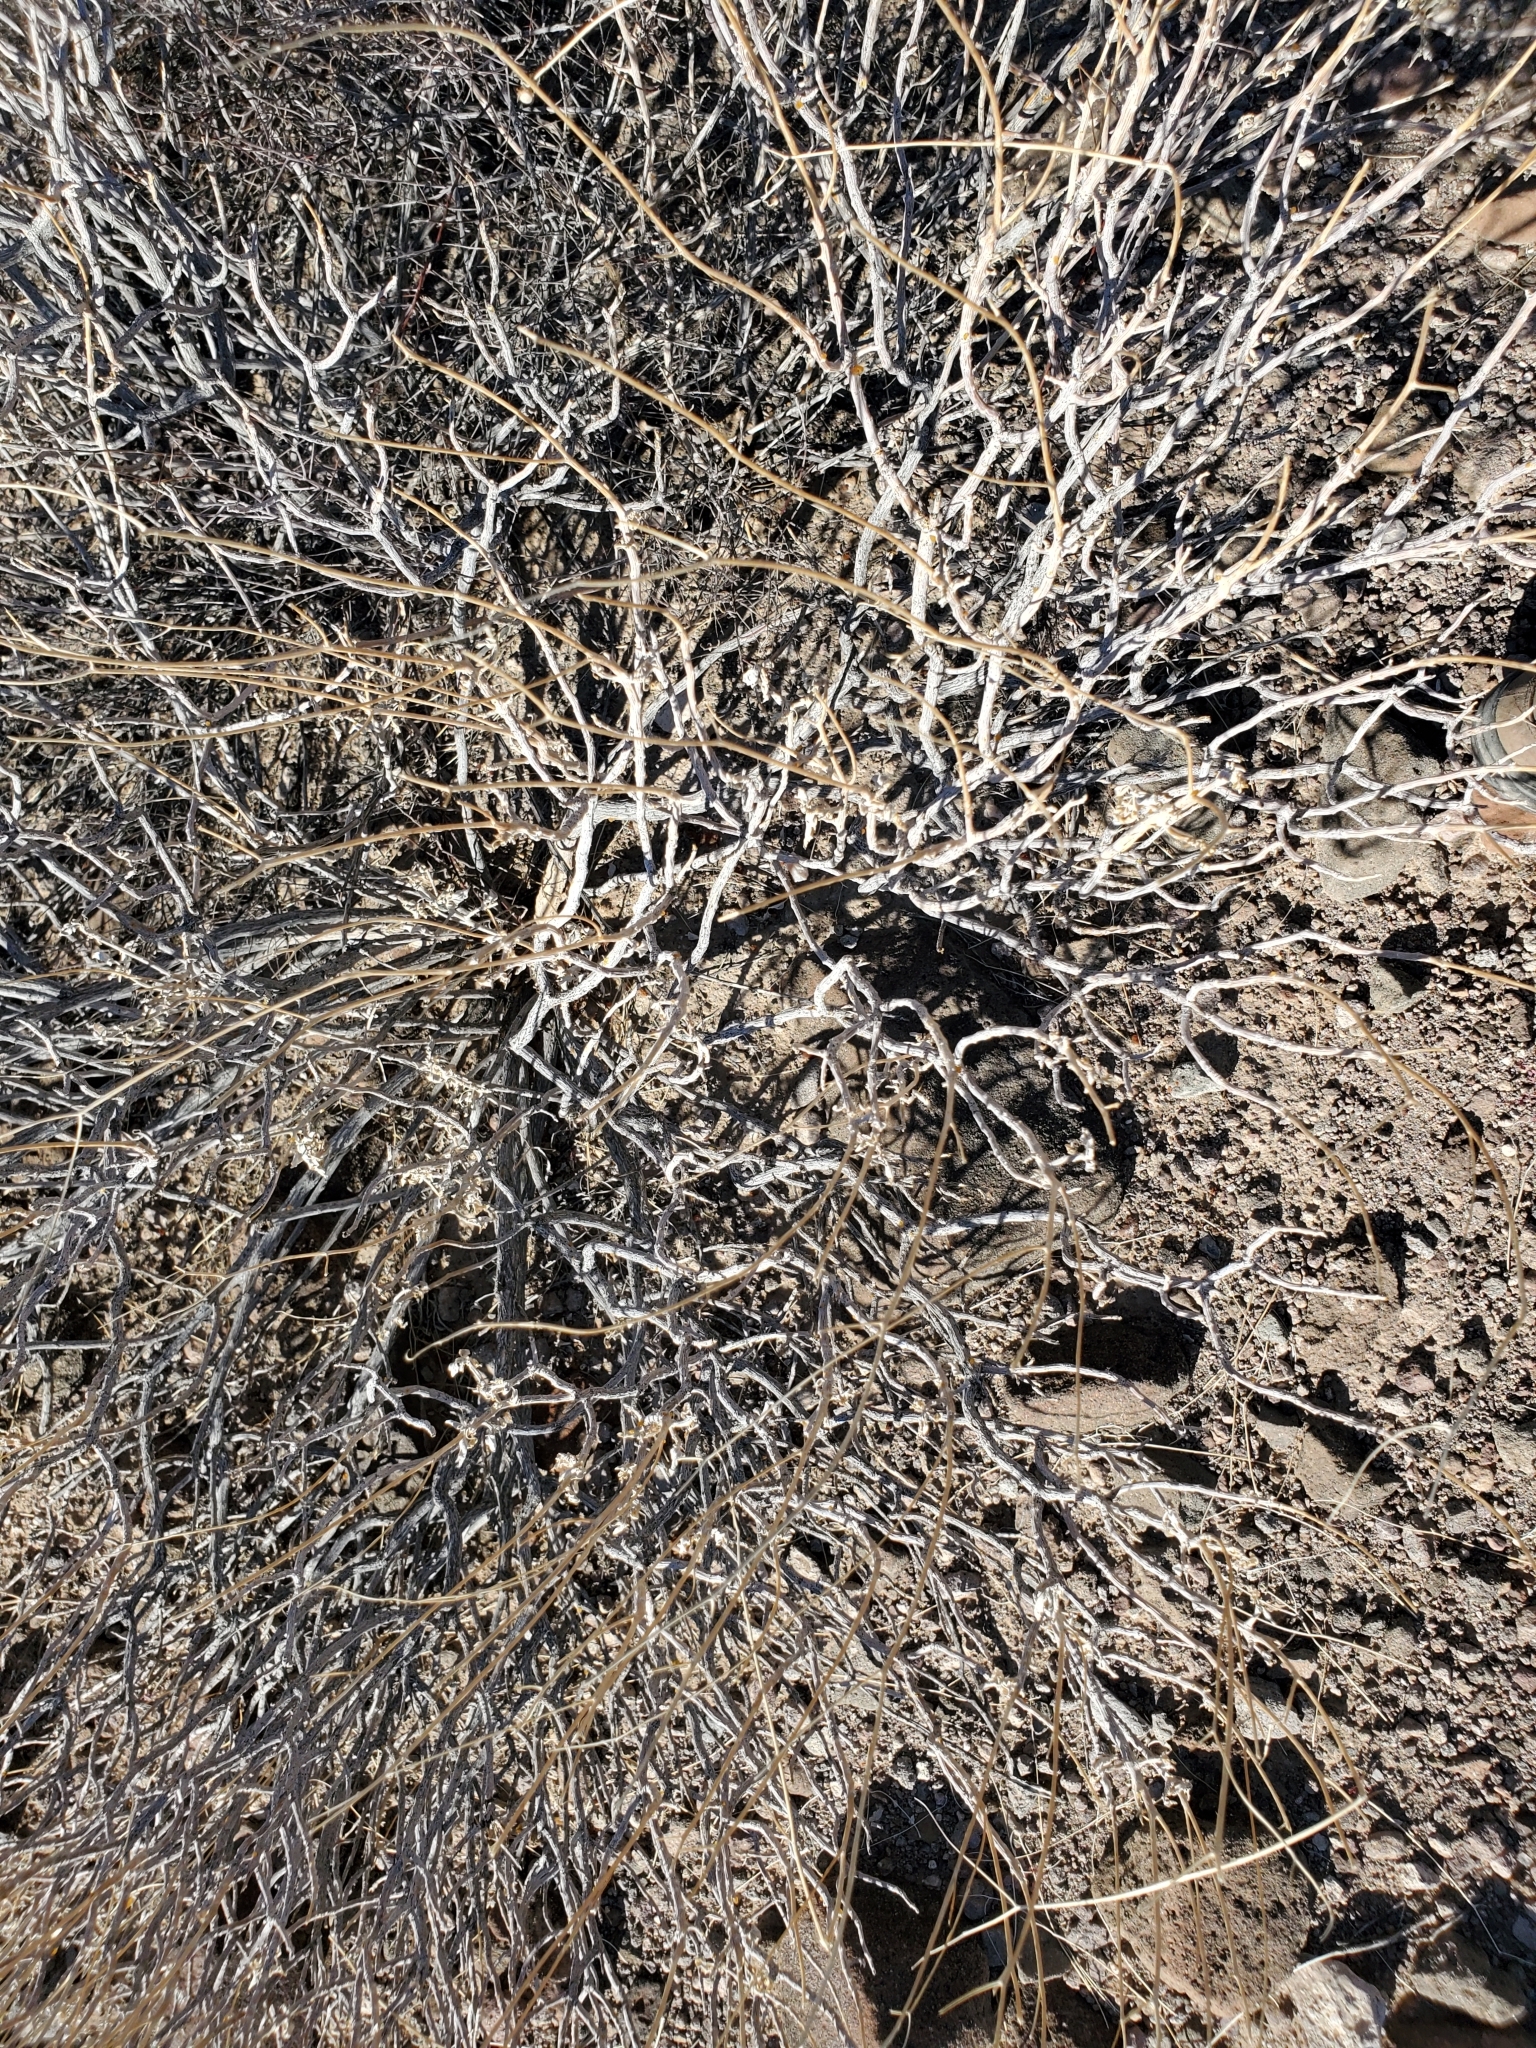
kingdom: Plantae
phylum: Tracheophyta
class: Magnoliopsida
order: Asterales
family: Asteraceae
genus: Encelia
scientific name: Encelia farinosa
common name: Brittlebush
